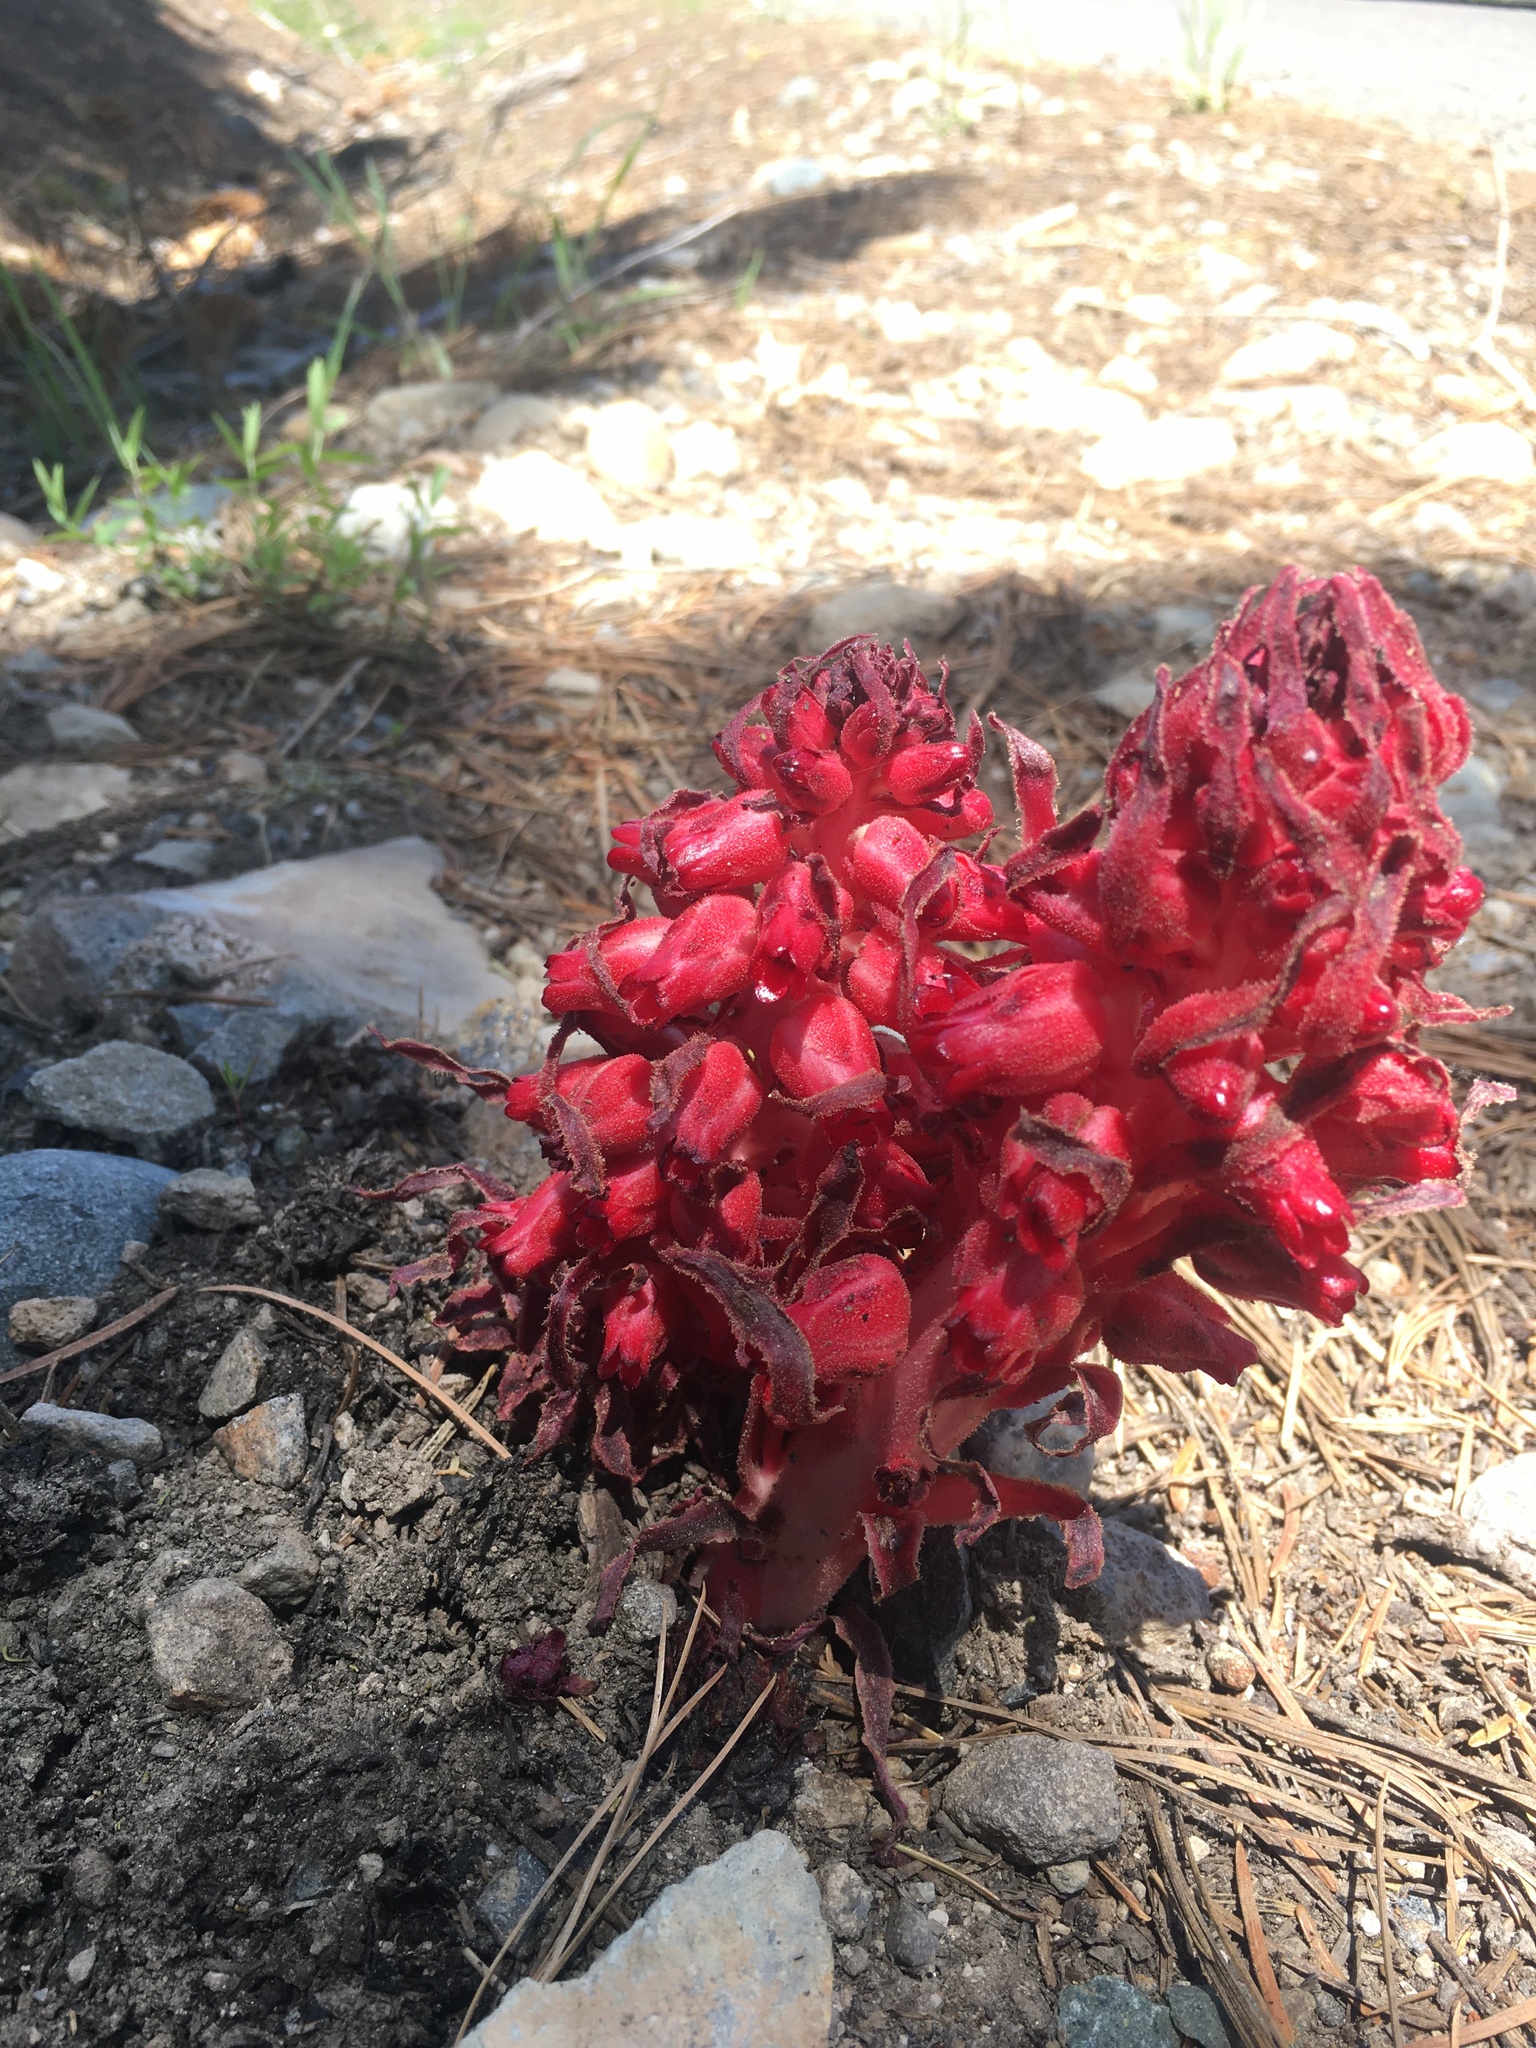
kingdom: Plantae
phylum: Tracheophyta
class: Magnoliopsida
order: Ericales
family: Ericaceae
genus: Sarcodes
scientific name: Sarcodes sanguinea
